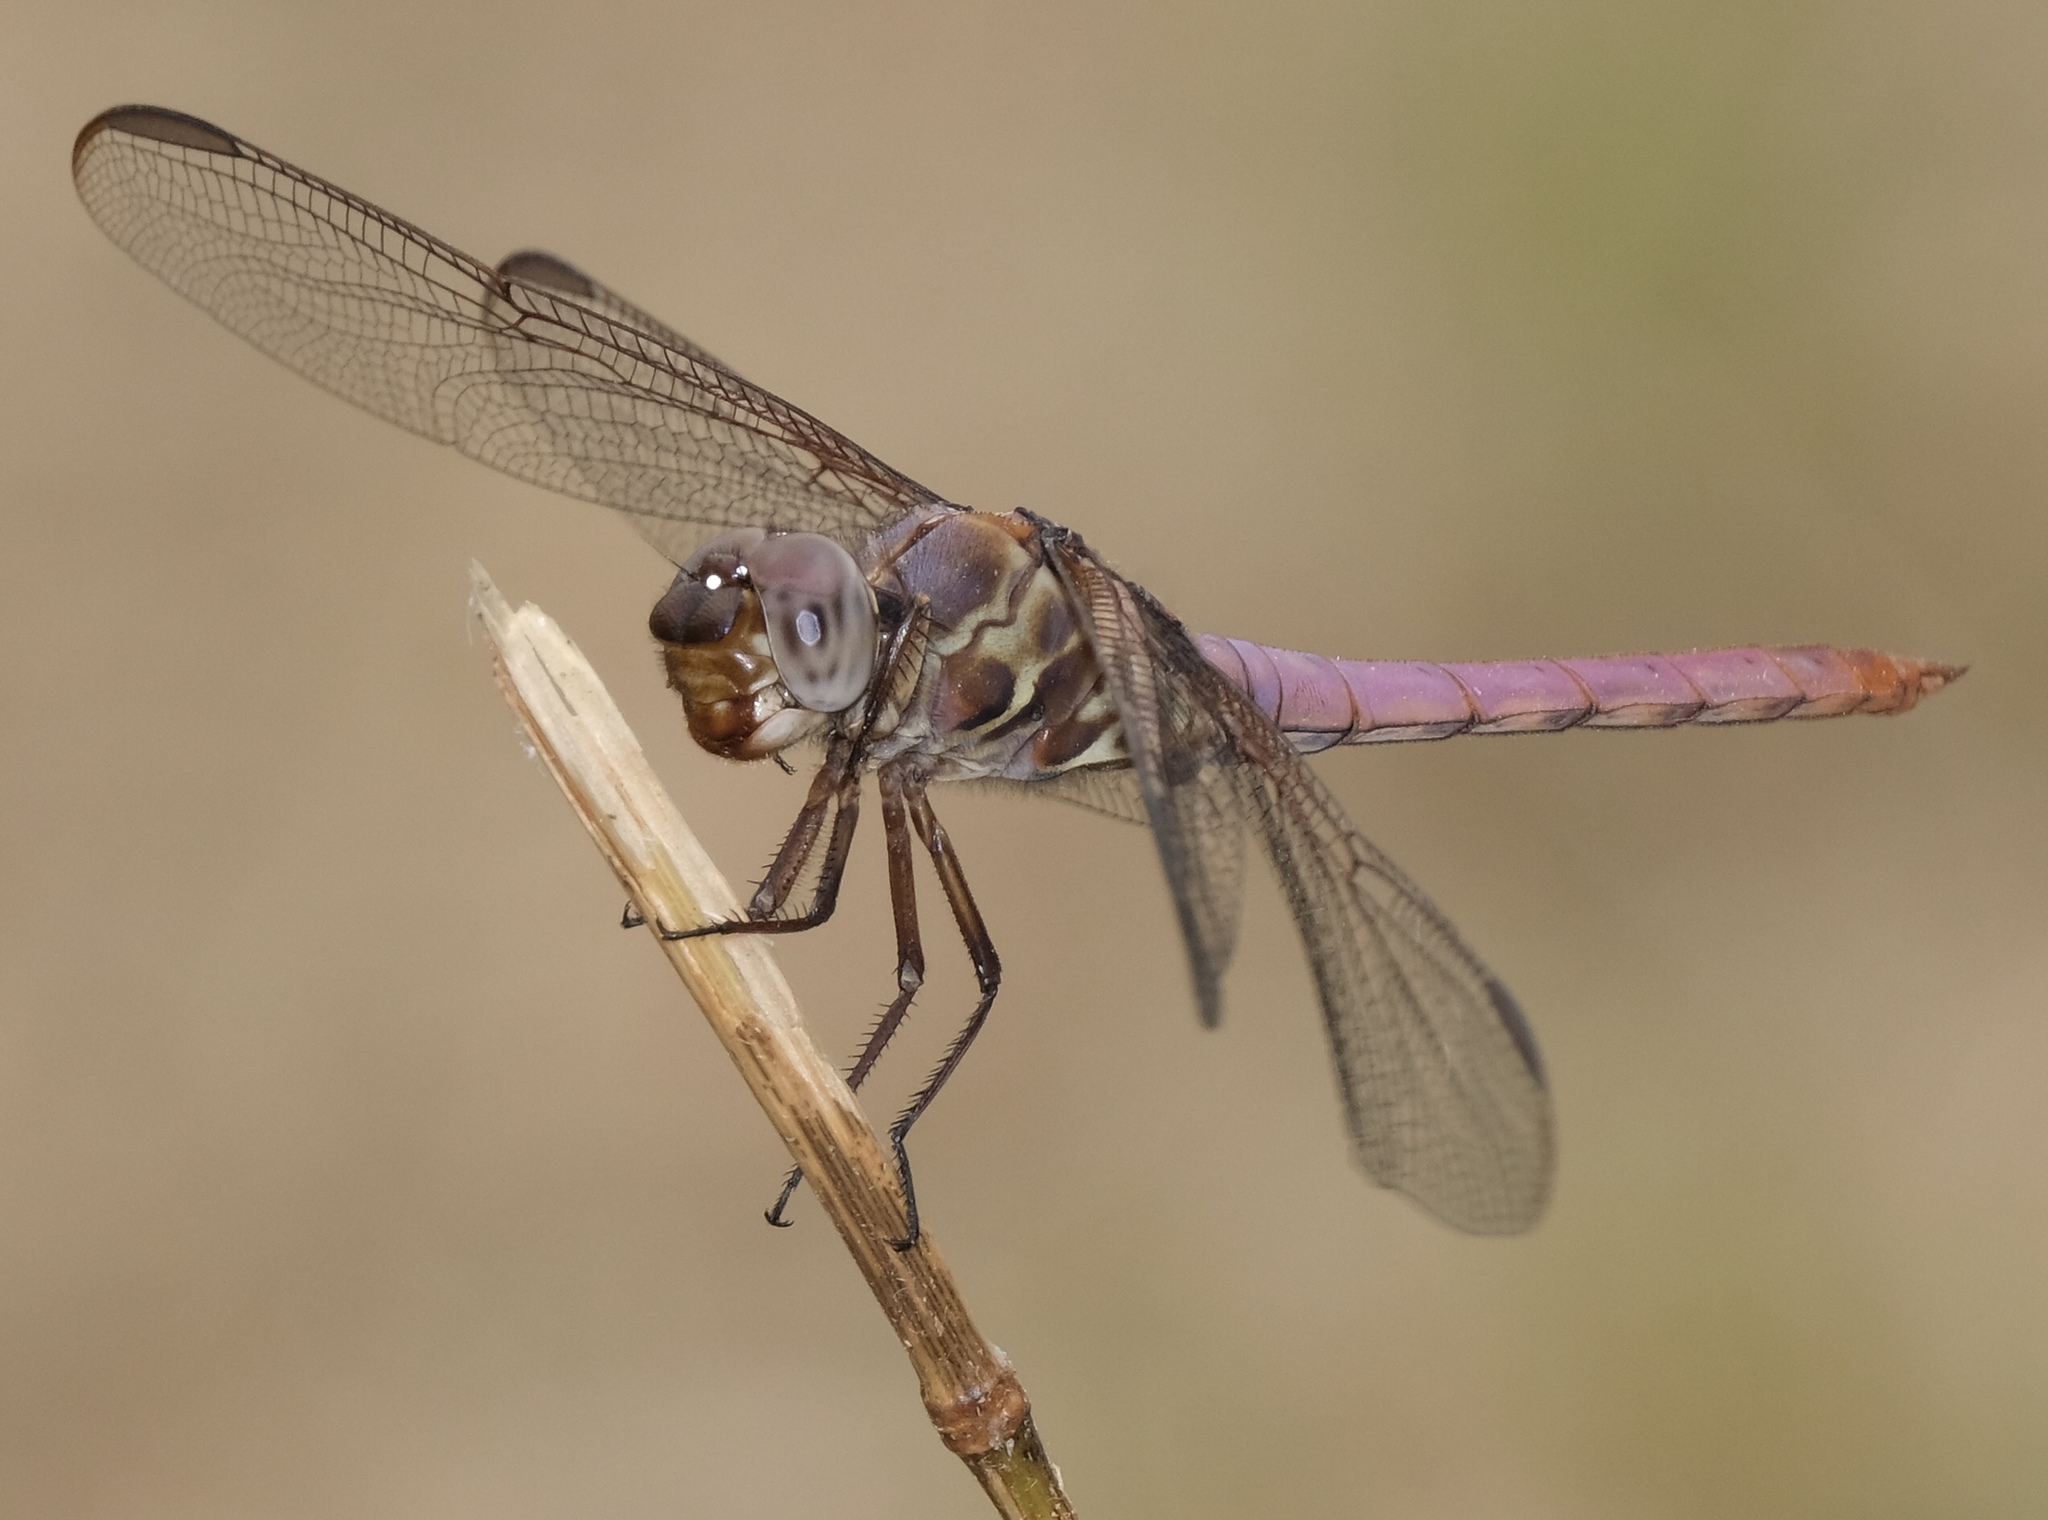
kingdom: Animalia
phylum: Arthropoda
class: Insecta
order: Odonata
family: Libellulidae
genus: Orthemis
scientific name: Orthemis ferruginea
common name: Roseate skimmer
